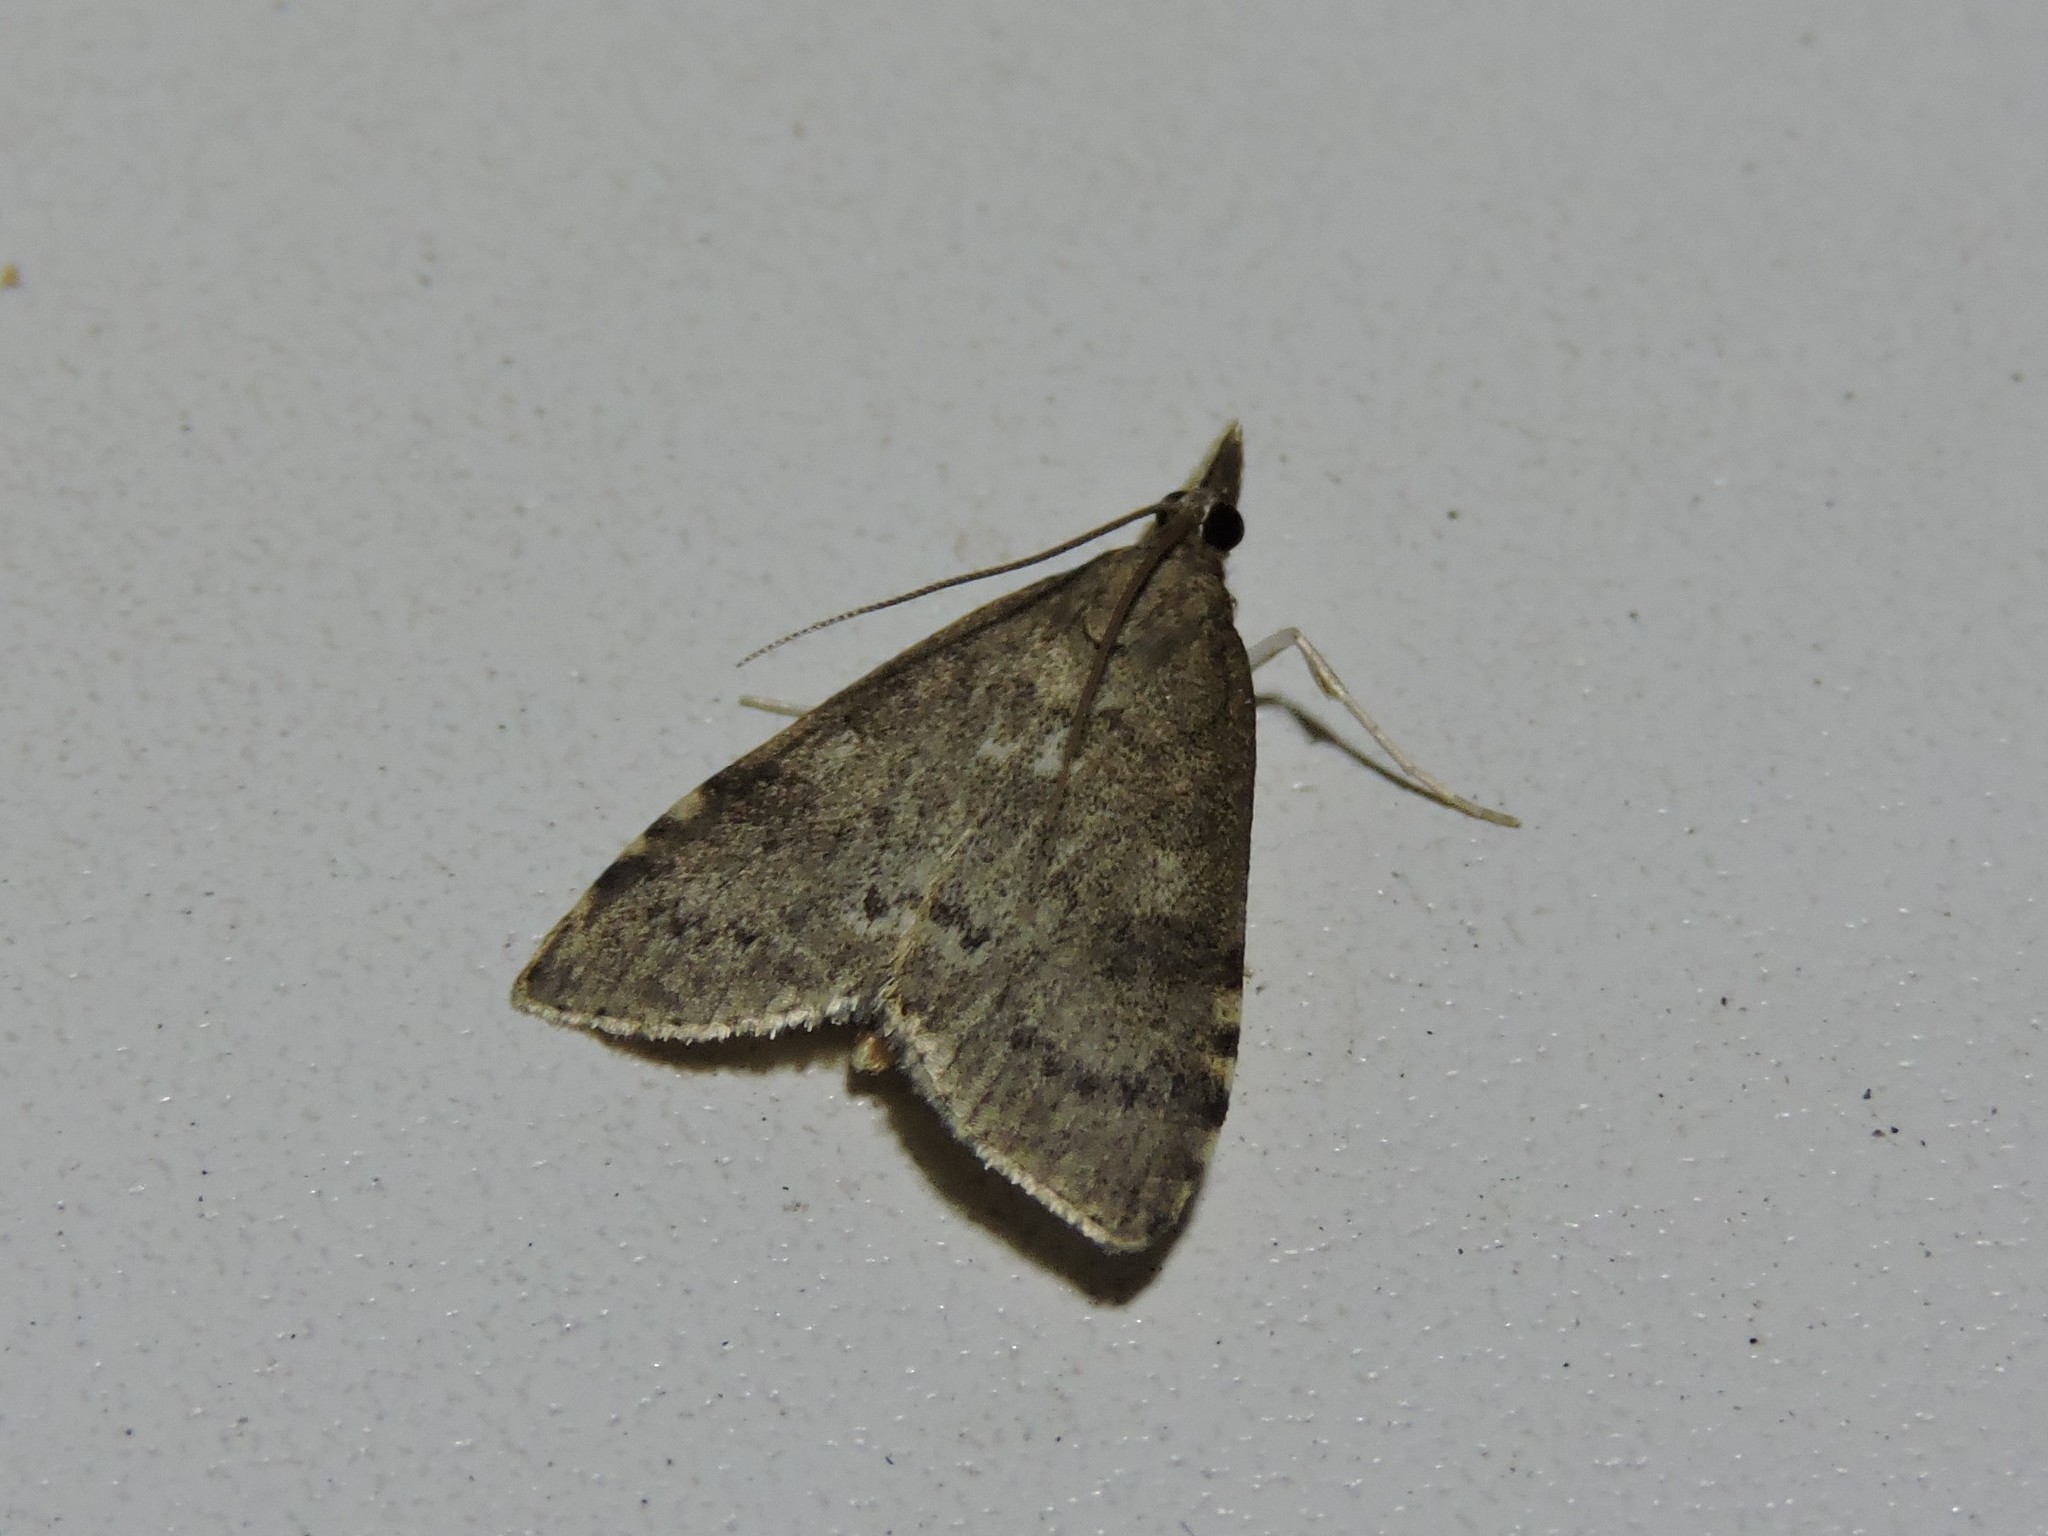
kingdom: Animalia
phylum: Arthropoda
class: Insecta
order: Lepidoptera
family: Crambidae
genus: Udea
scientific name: Udea prunalis
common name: Dusky pearl
